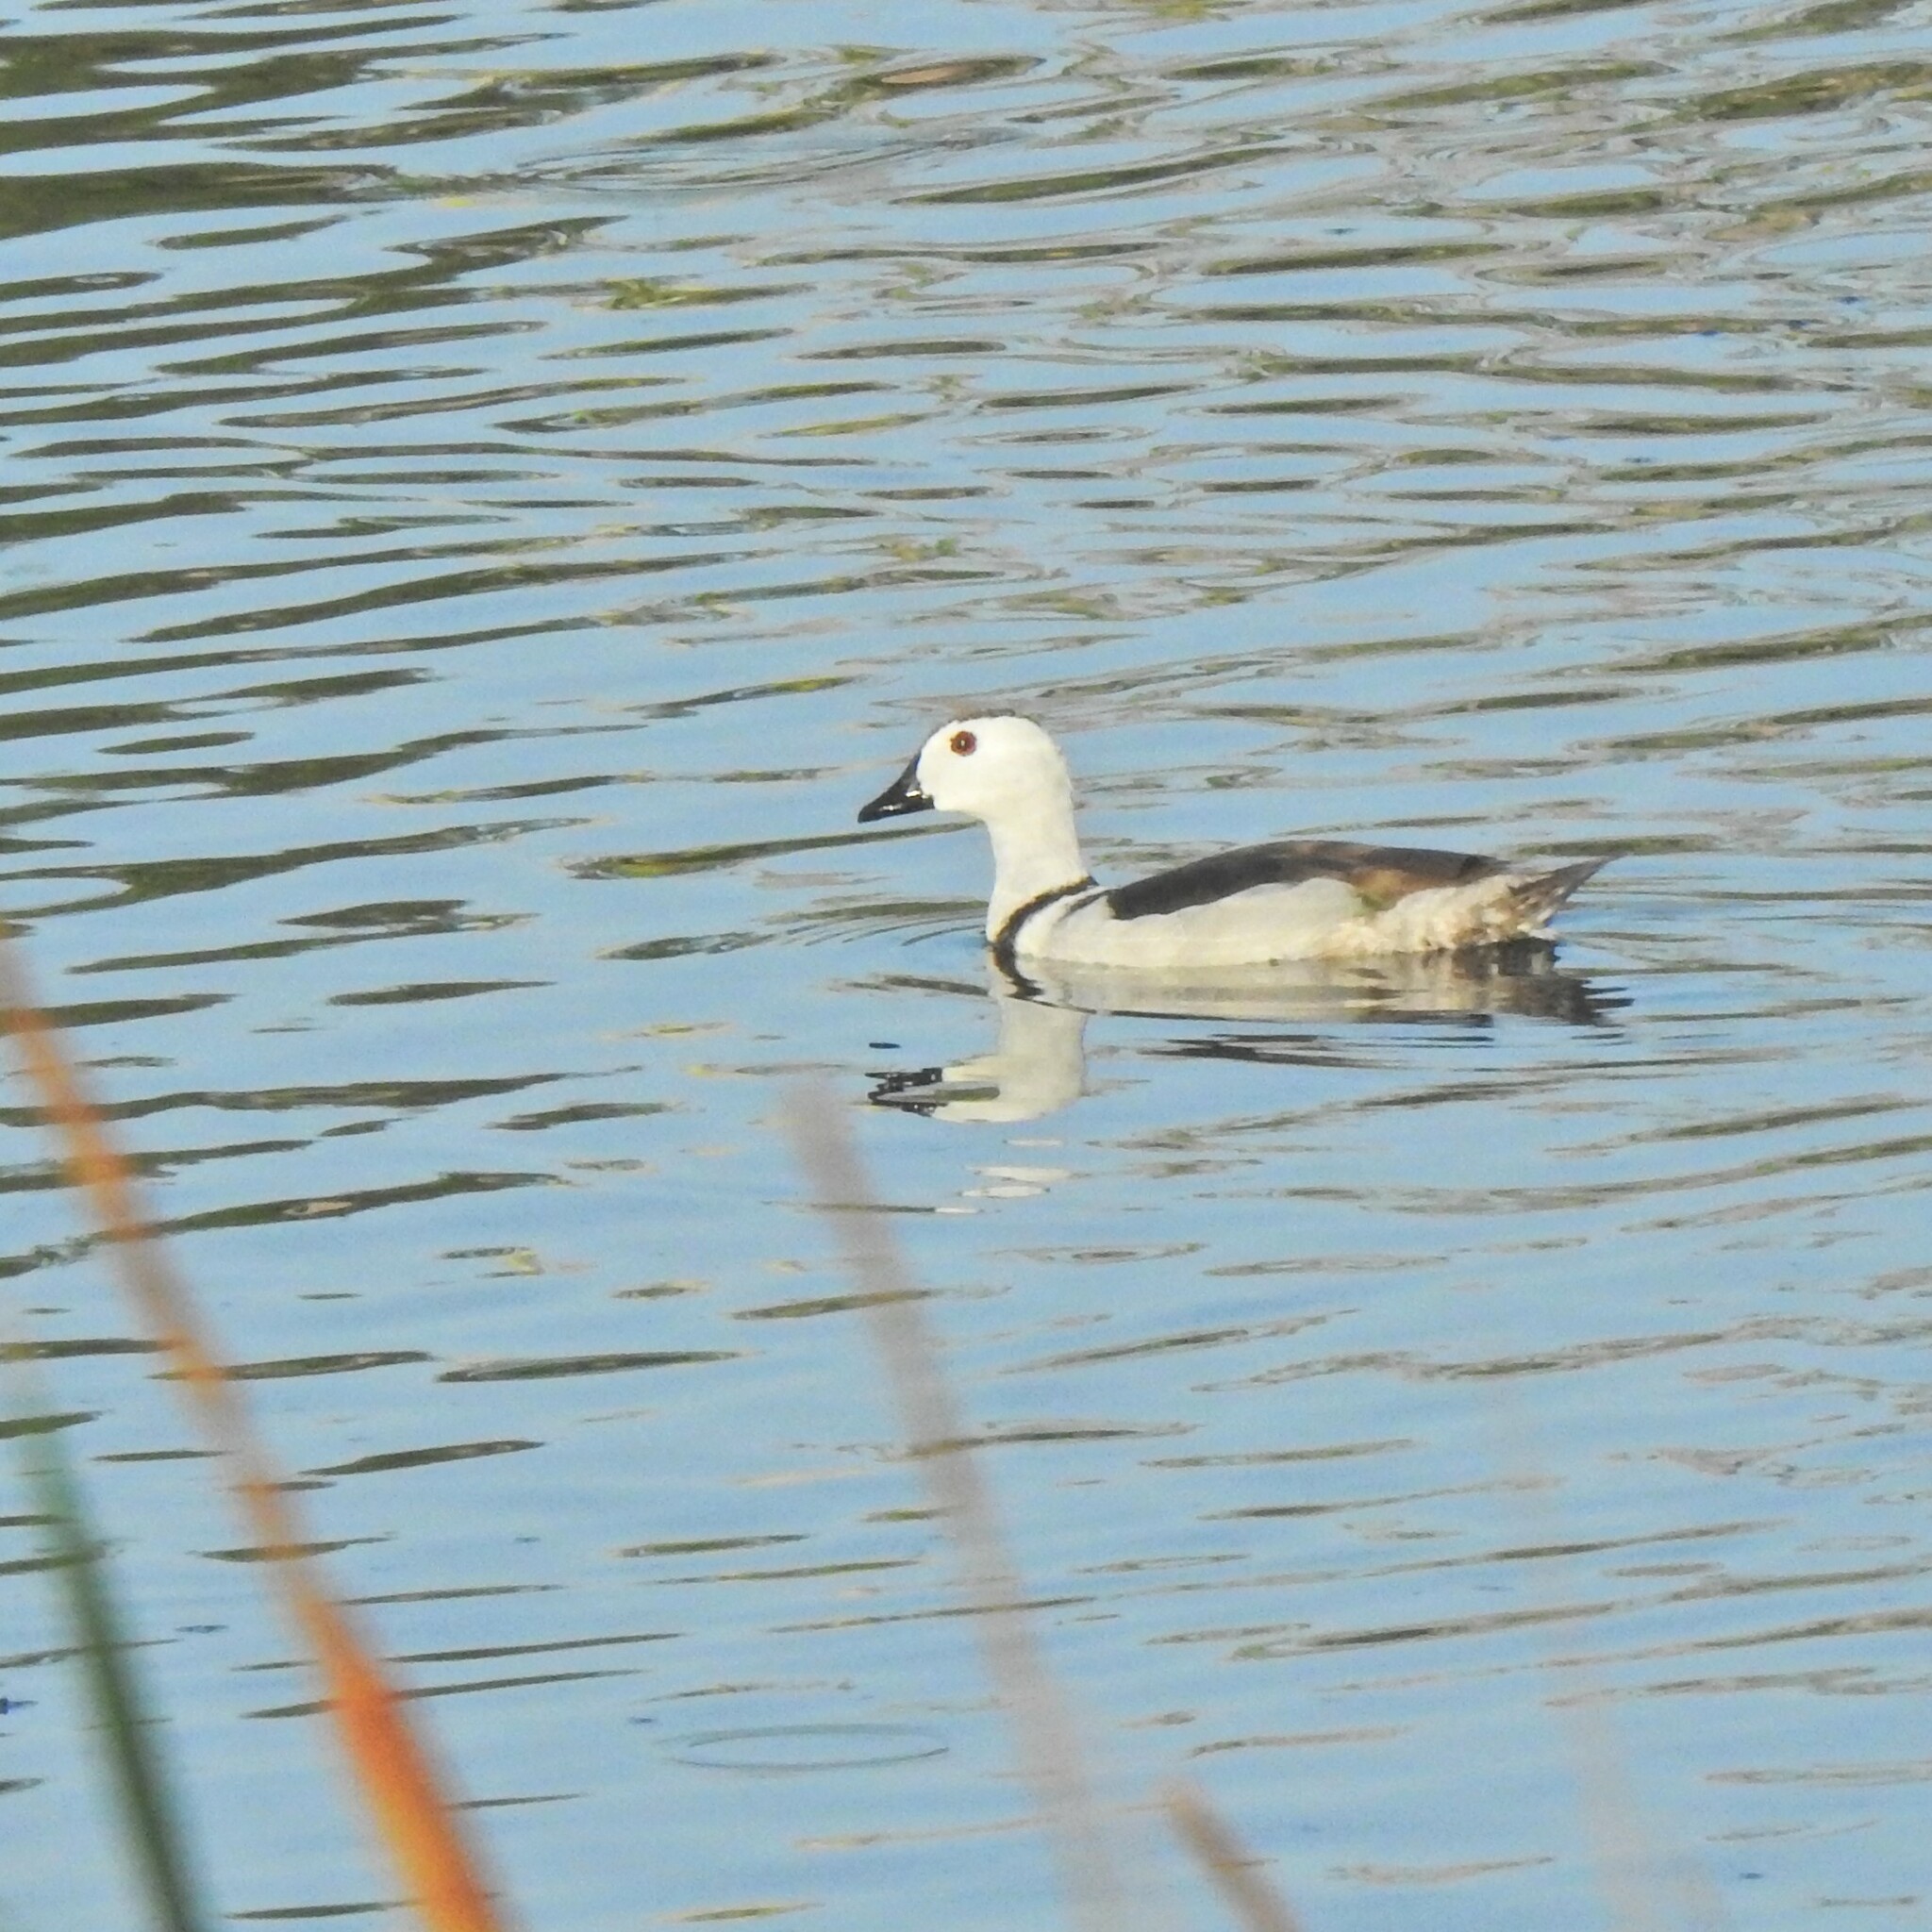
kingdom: Animalia
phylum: Chordata
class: Aves
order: Anseriformes
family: Anatidae
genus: Nettapus
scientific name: Nettapus coromandelianus
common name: Cotton pygmy-goose
